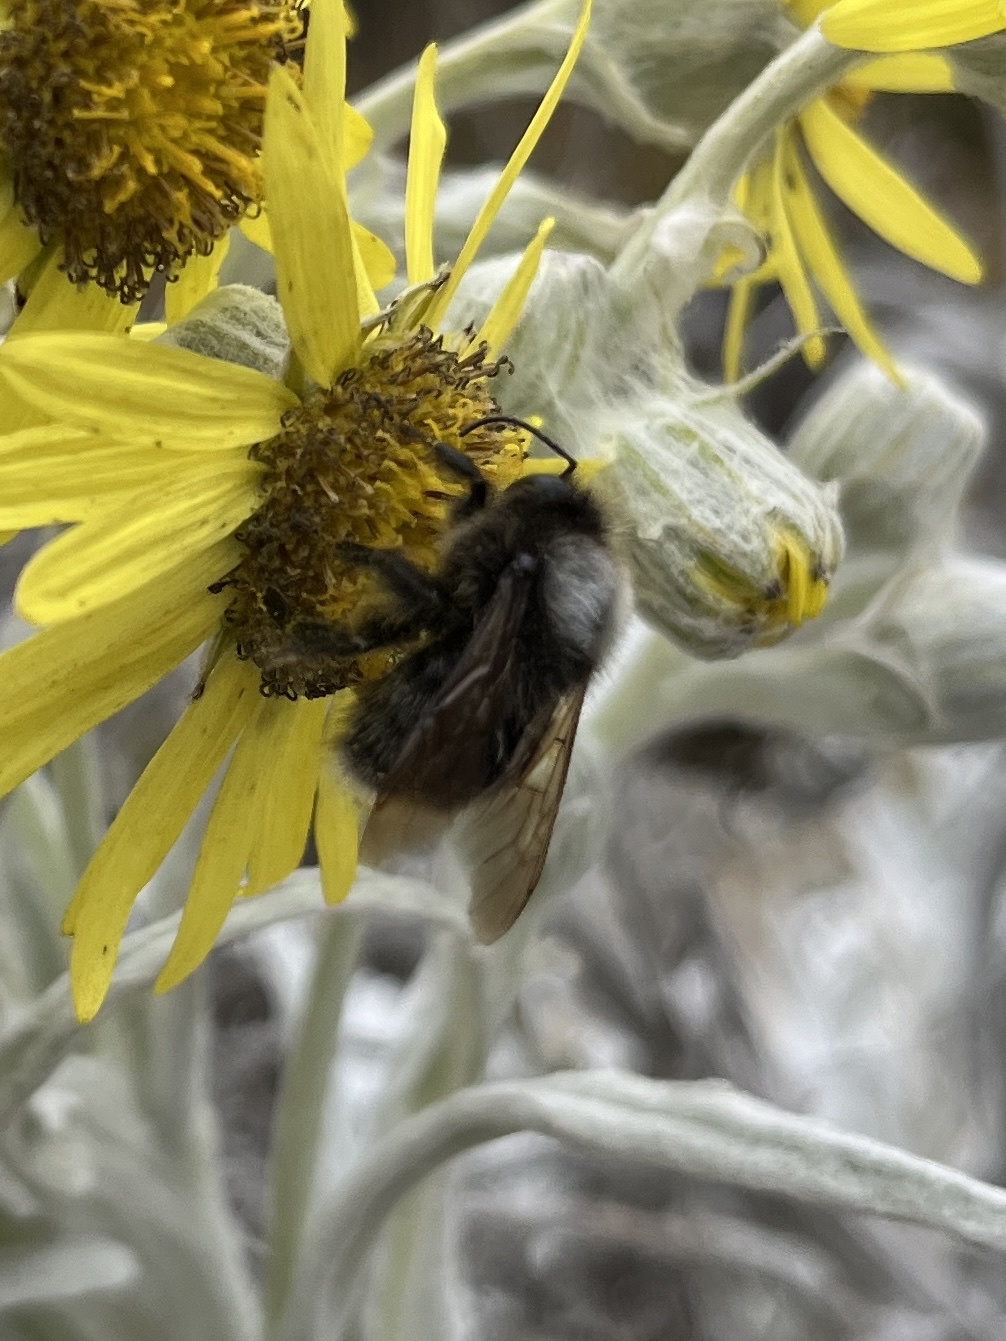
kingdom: Animalia
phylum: Arthropoda
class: Insecta
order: Hymenoptera
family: Apidae
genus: Bombus
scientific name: Bombus funebris
